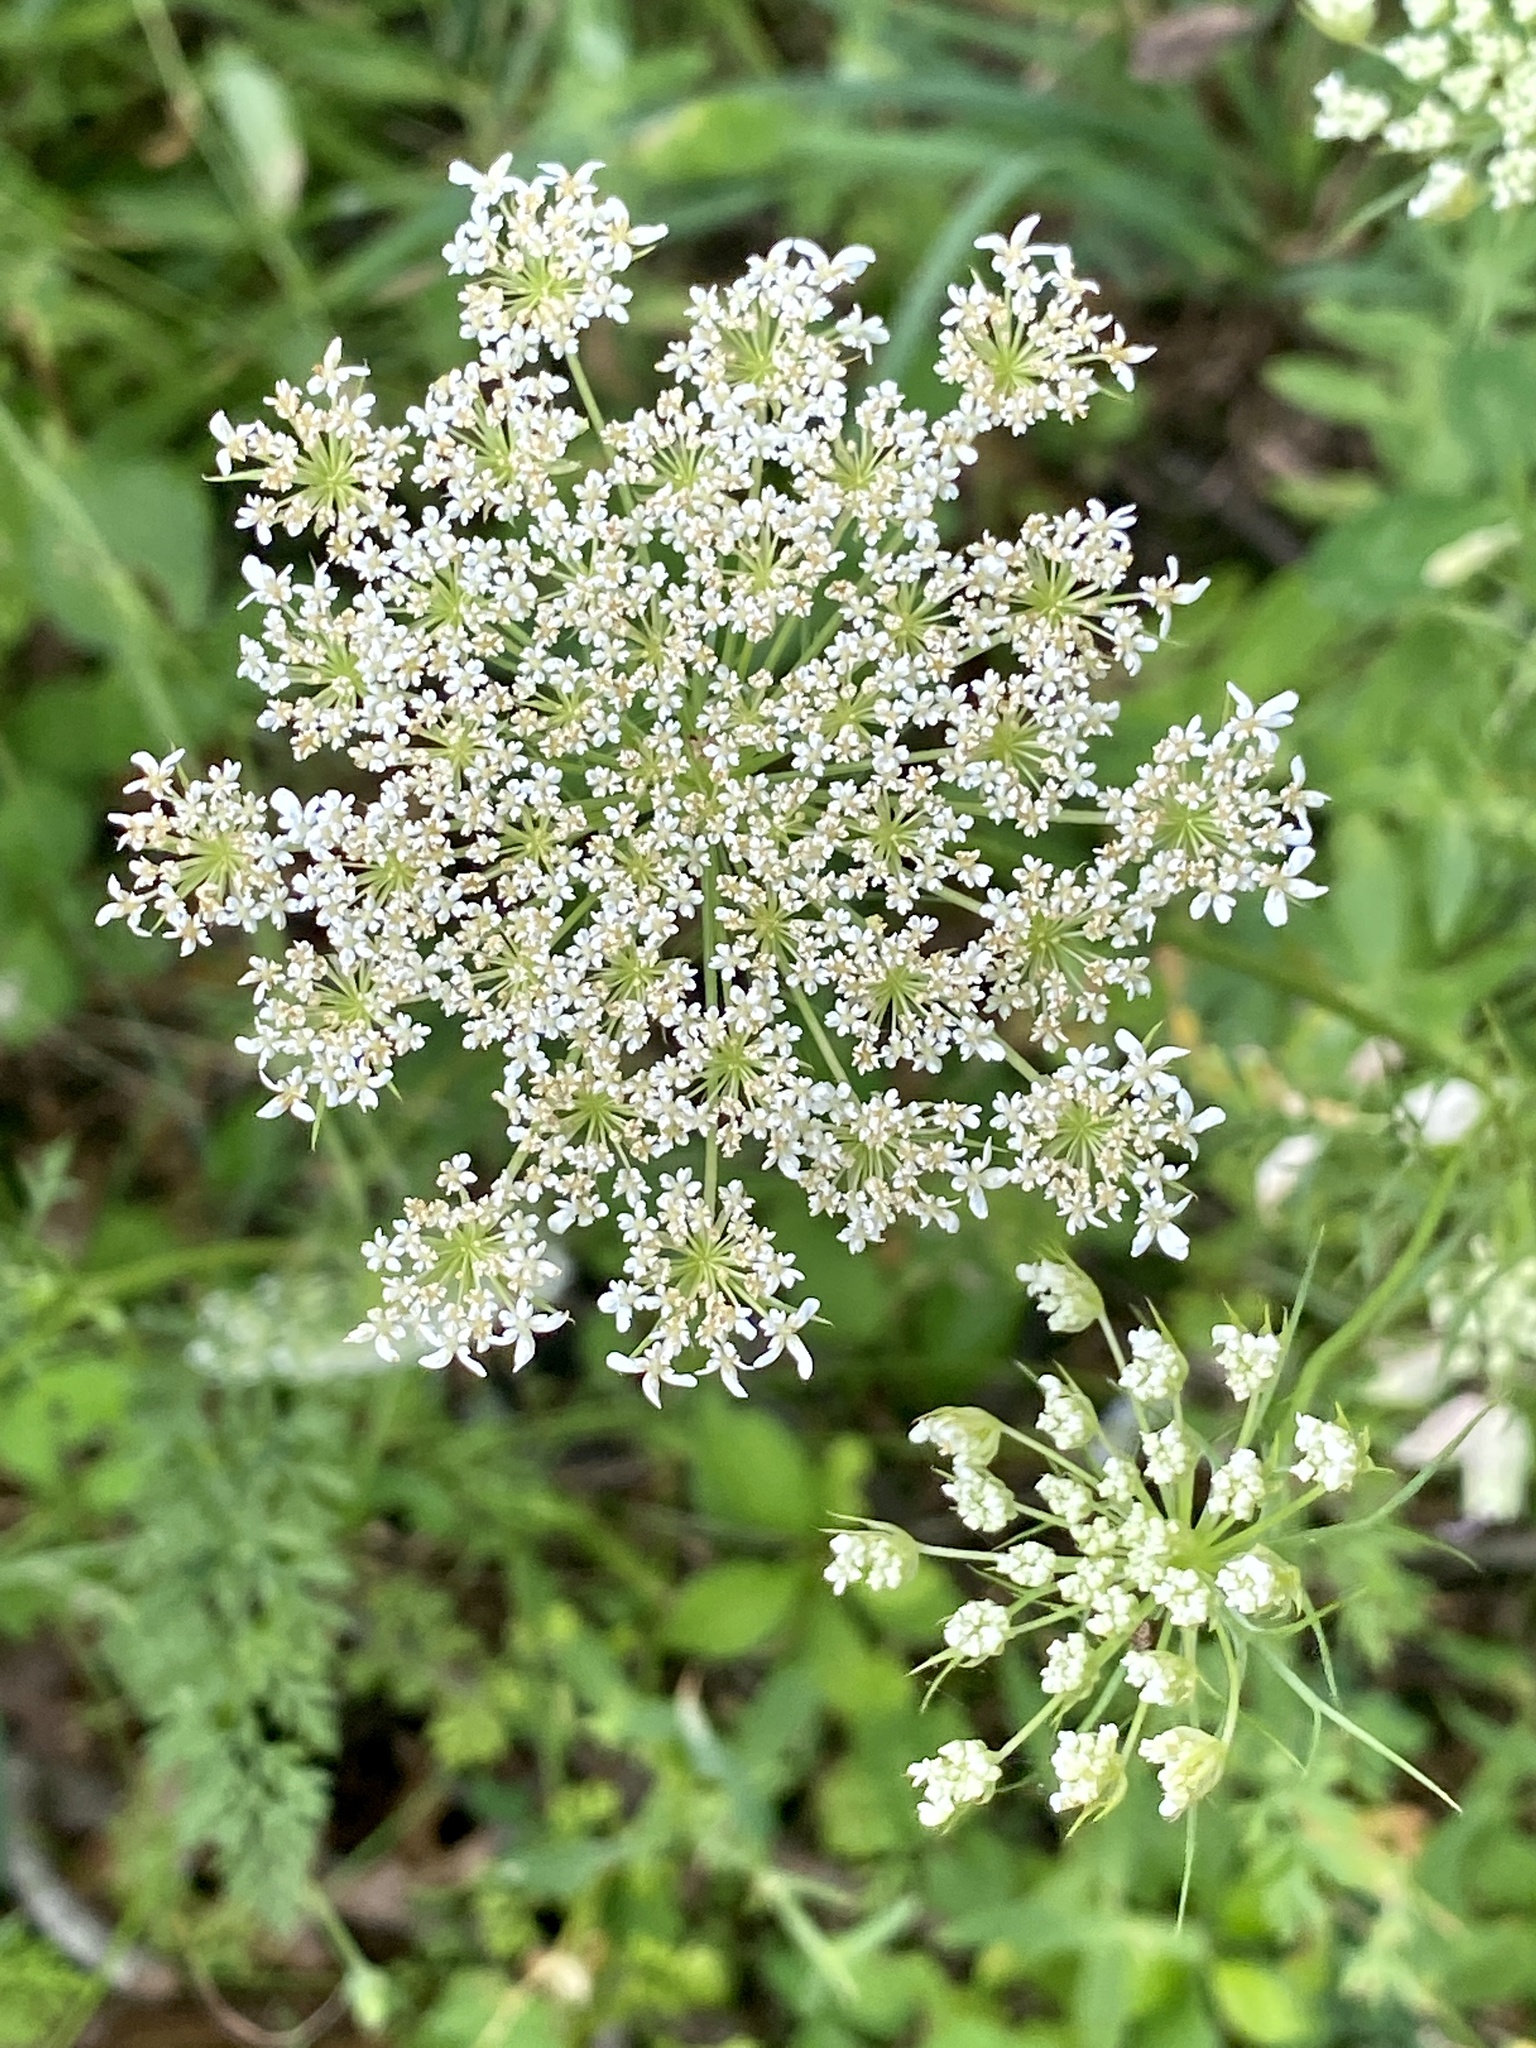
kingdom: Plantae
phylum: Tracheophyta
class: Magnoliopsida
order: Apiales
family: Apiaceae
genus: Daucus
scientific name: Daucus carota
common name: Wild carrot
